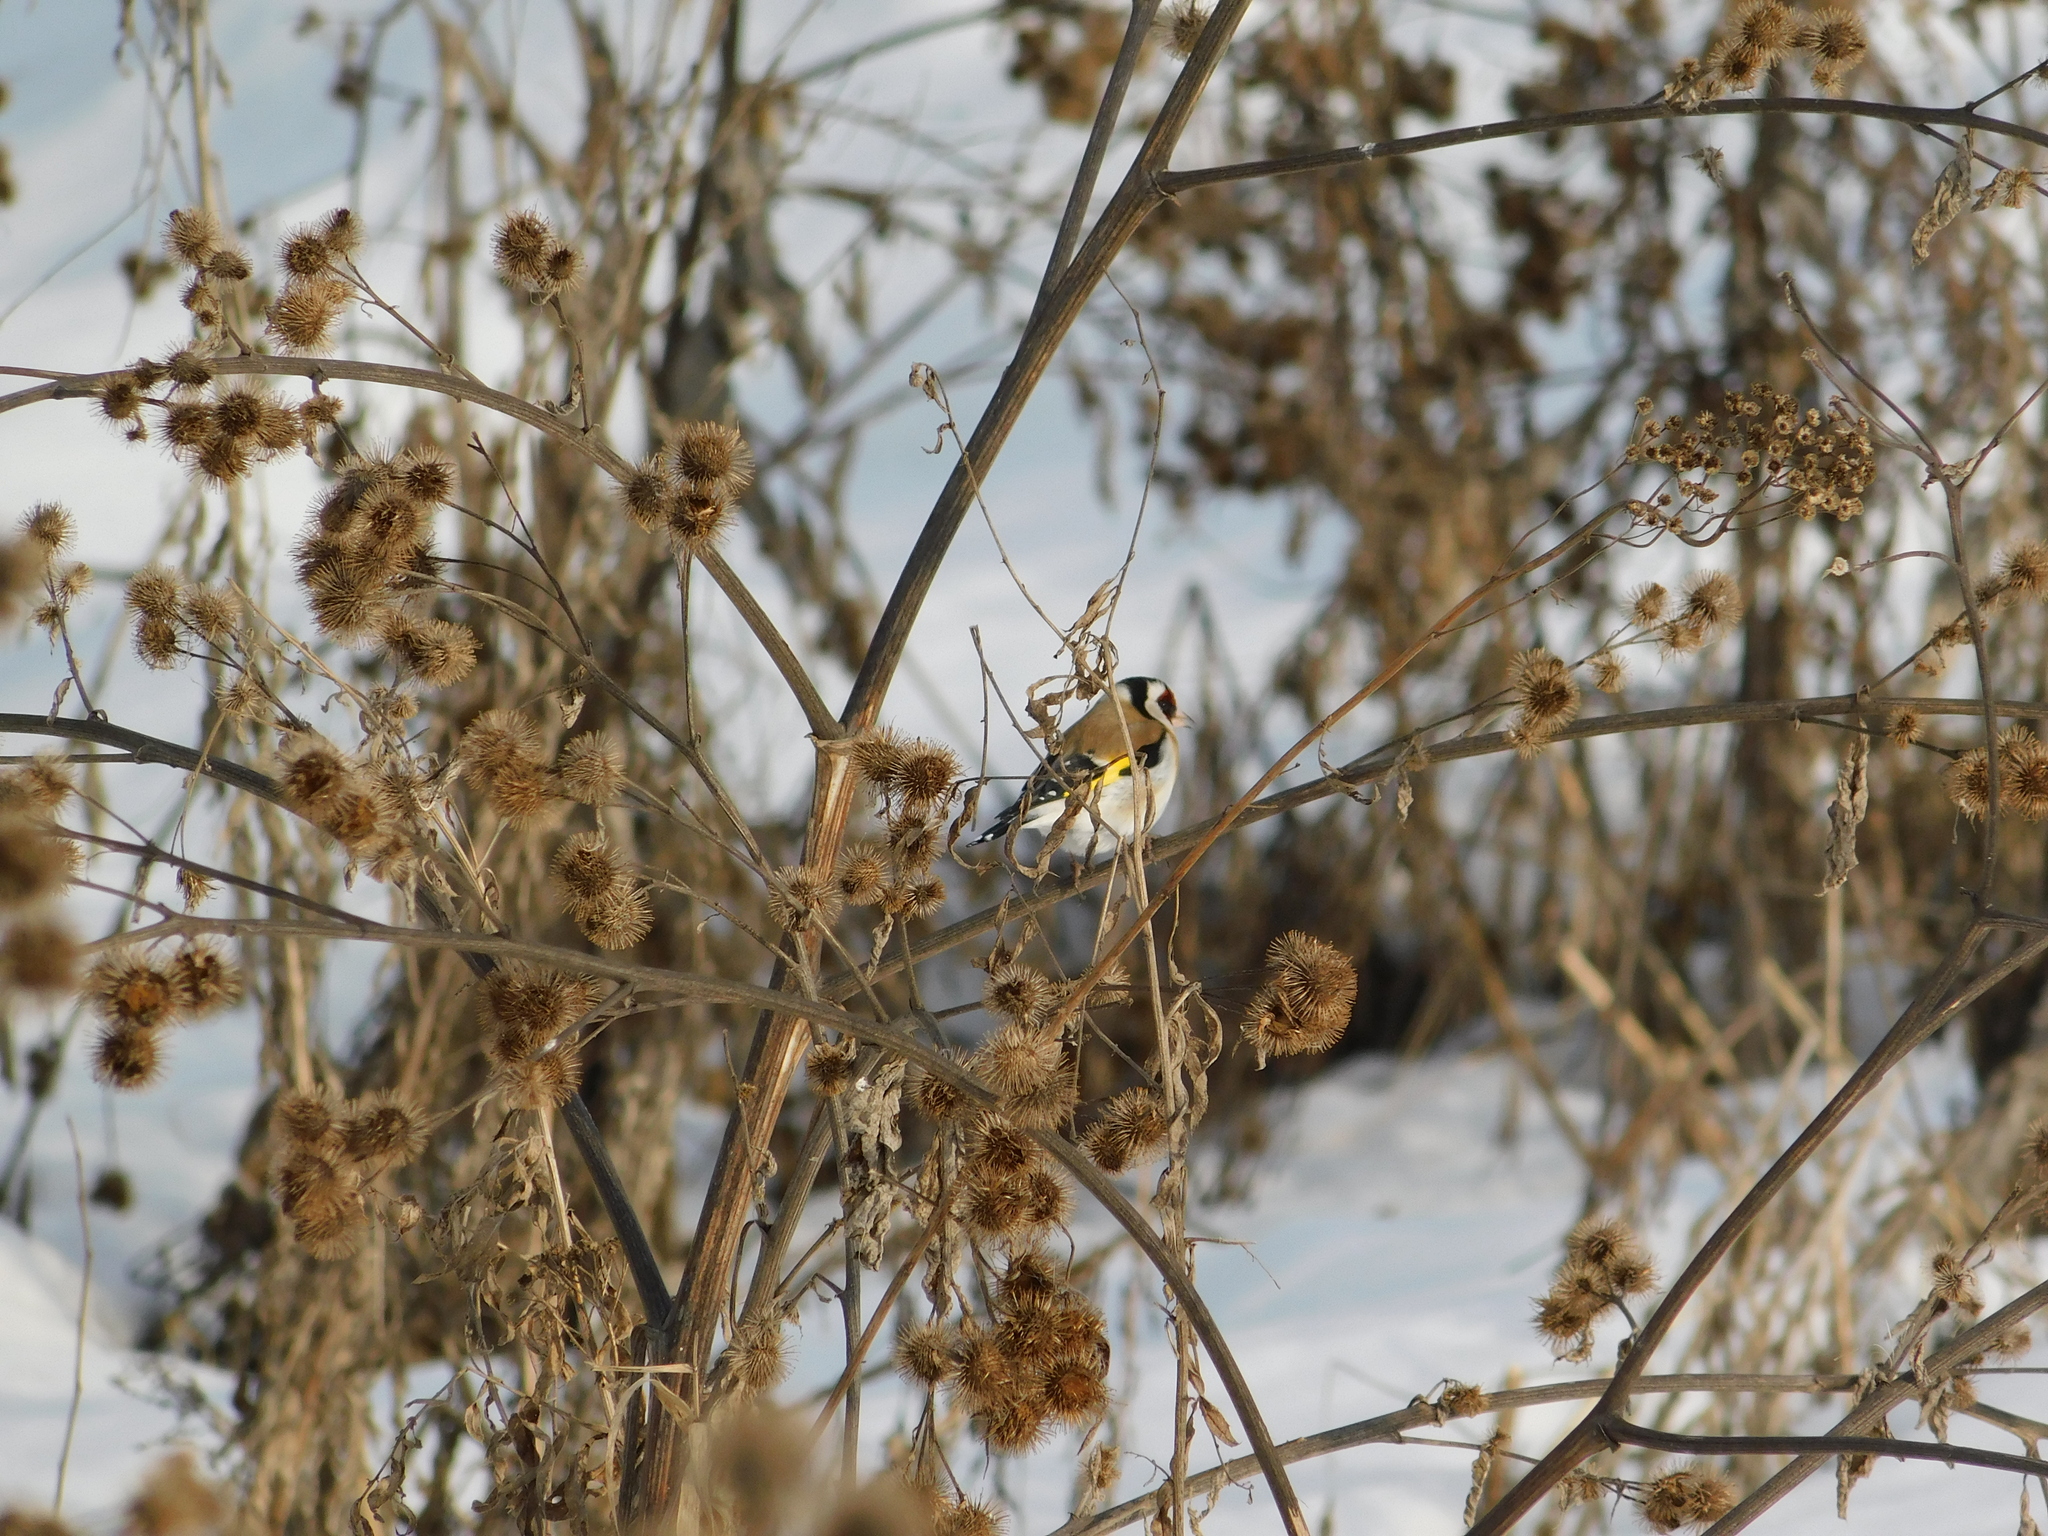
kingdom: Animalia
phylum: Chordata
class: Aves
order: Passeriformes
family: Fringillidae
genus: Carduelis
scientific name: Carduelis carduelis
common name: European goldfinch
